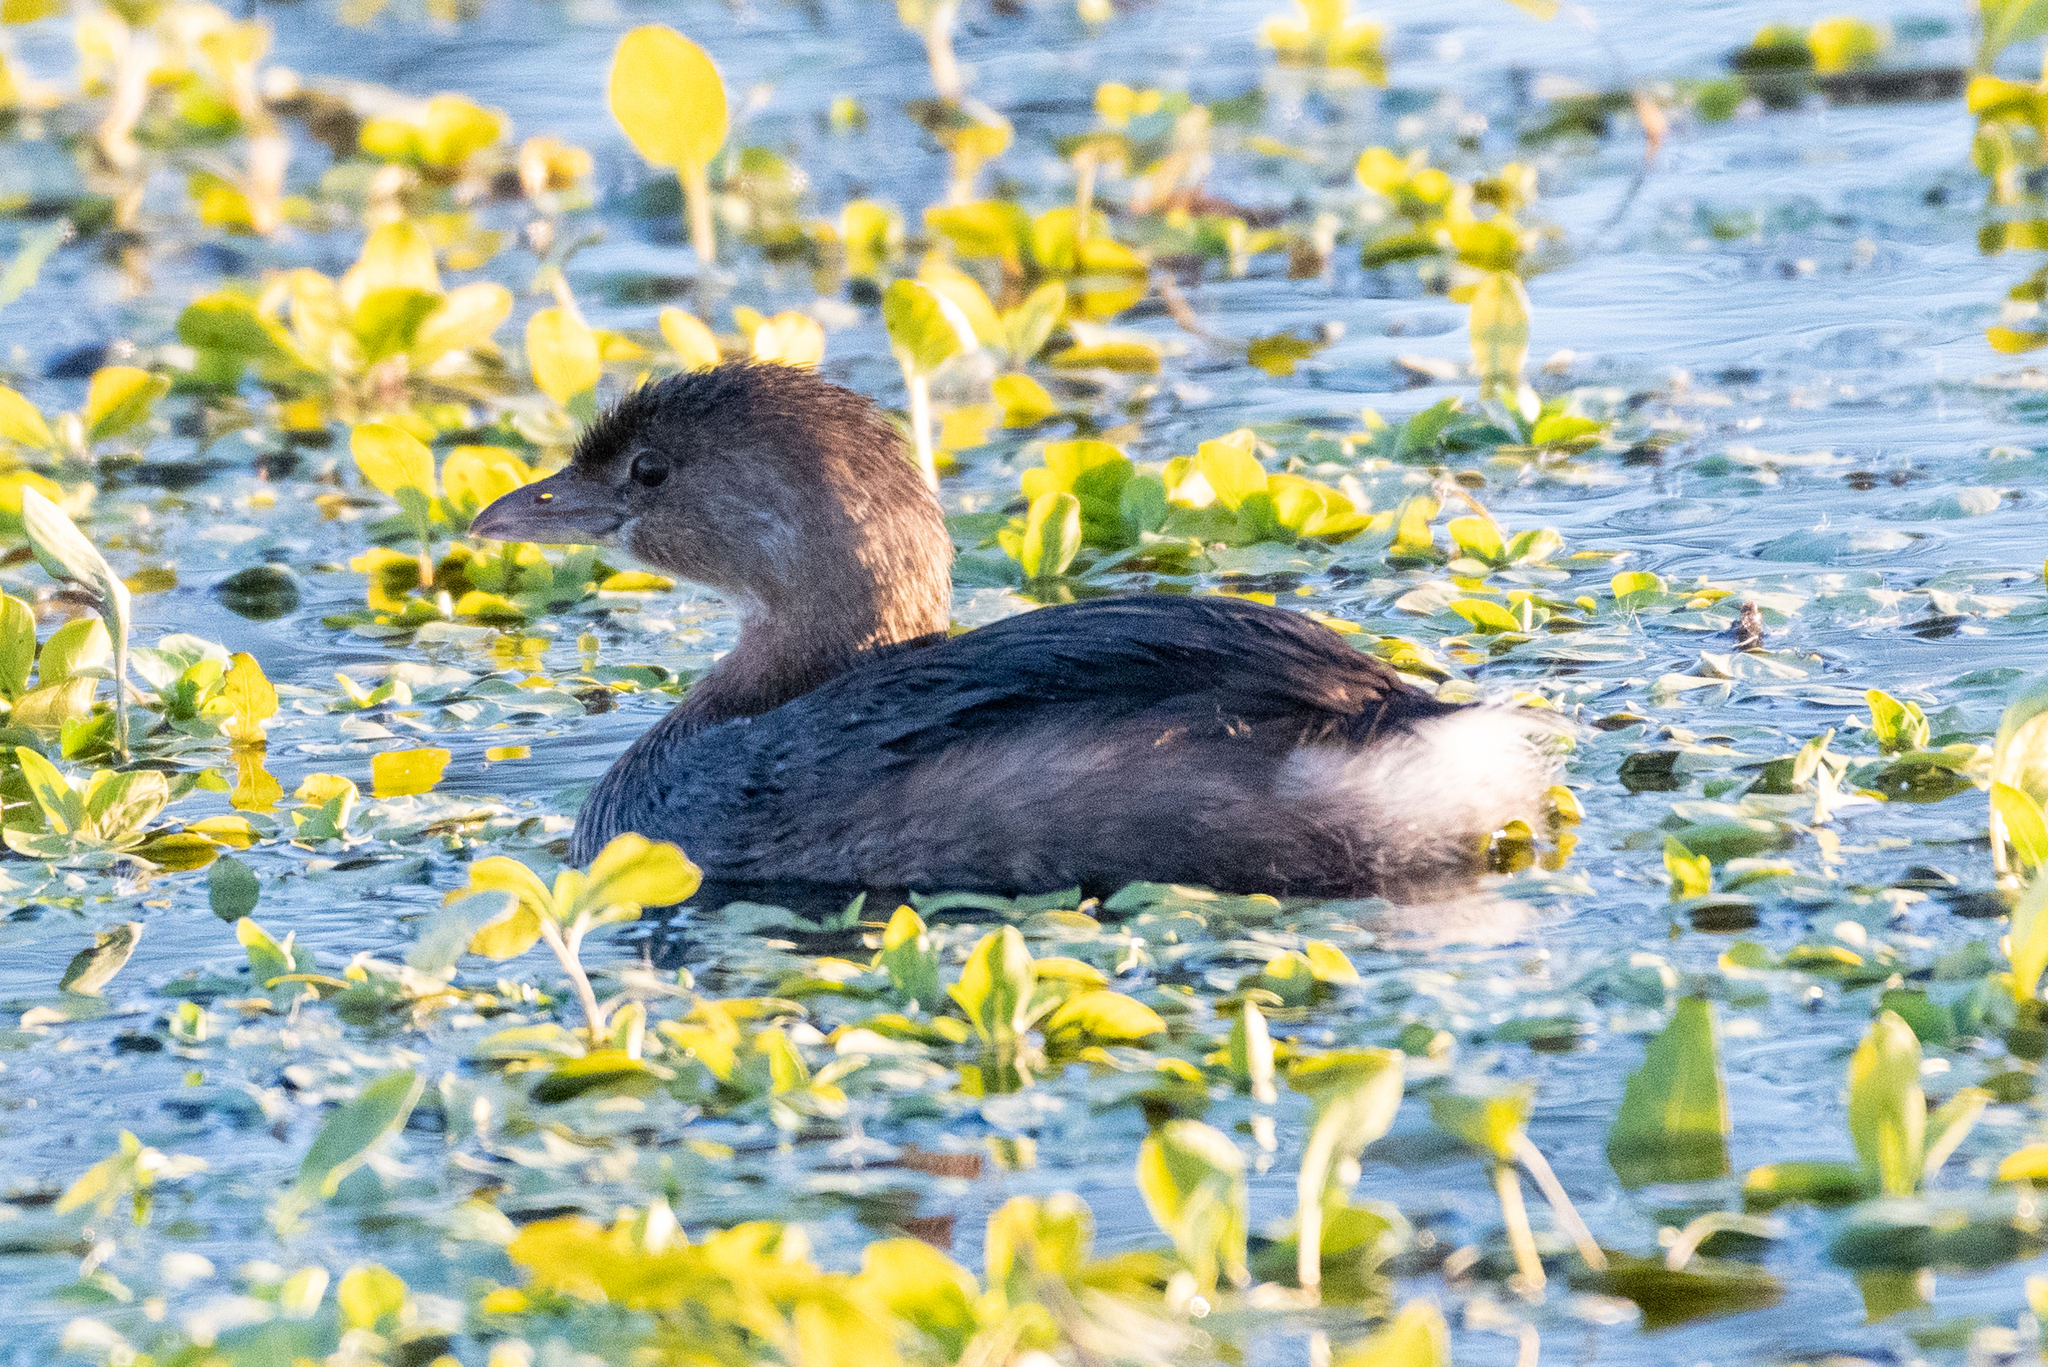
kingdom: Animalia
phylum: Chordata
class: Aves
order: Podicipediformes
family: Podicipedidae
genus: Podilymbus
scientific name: Podilymbus podiceps
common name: Pied-billed grebe
